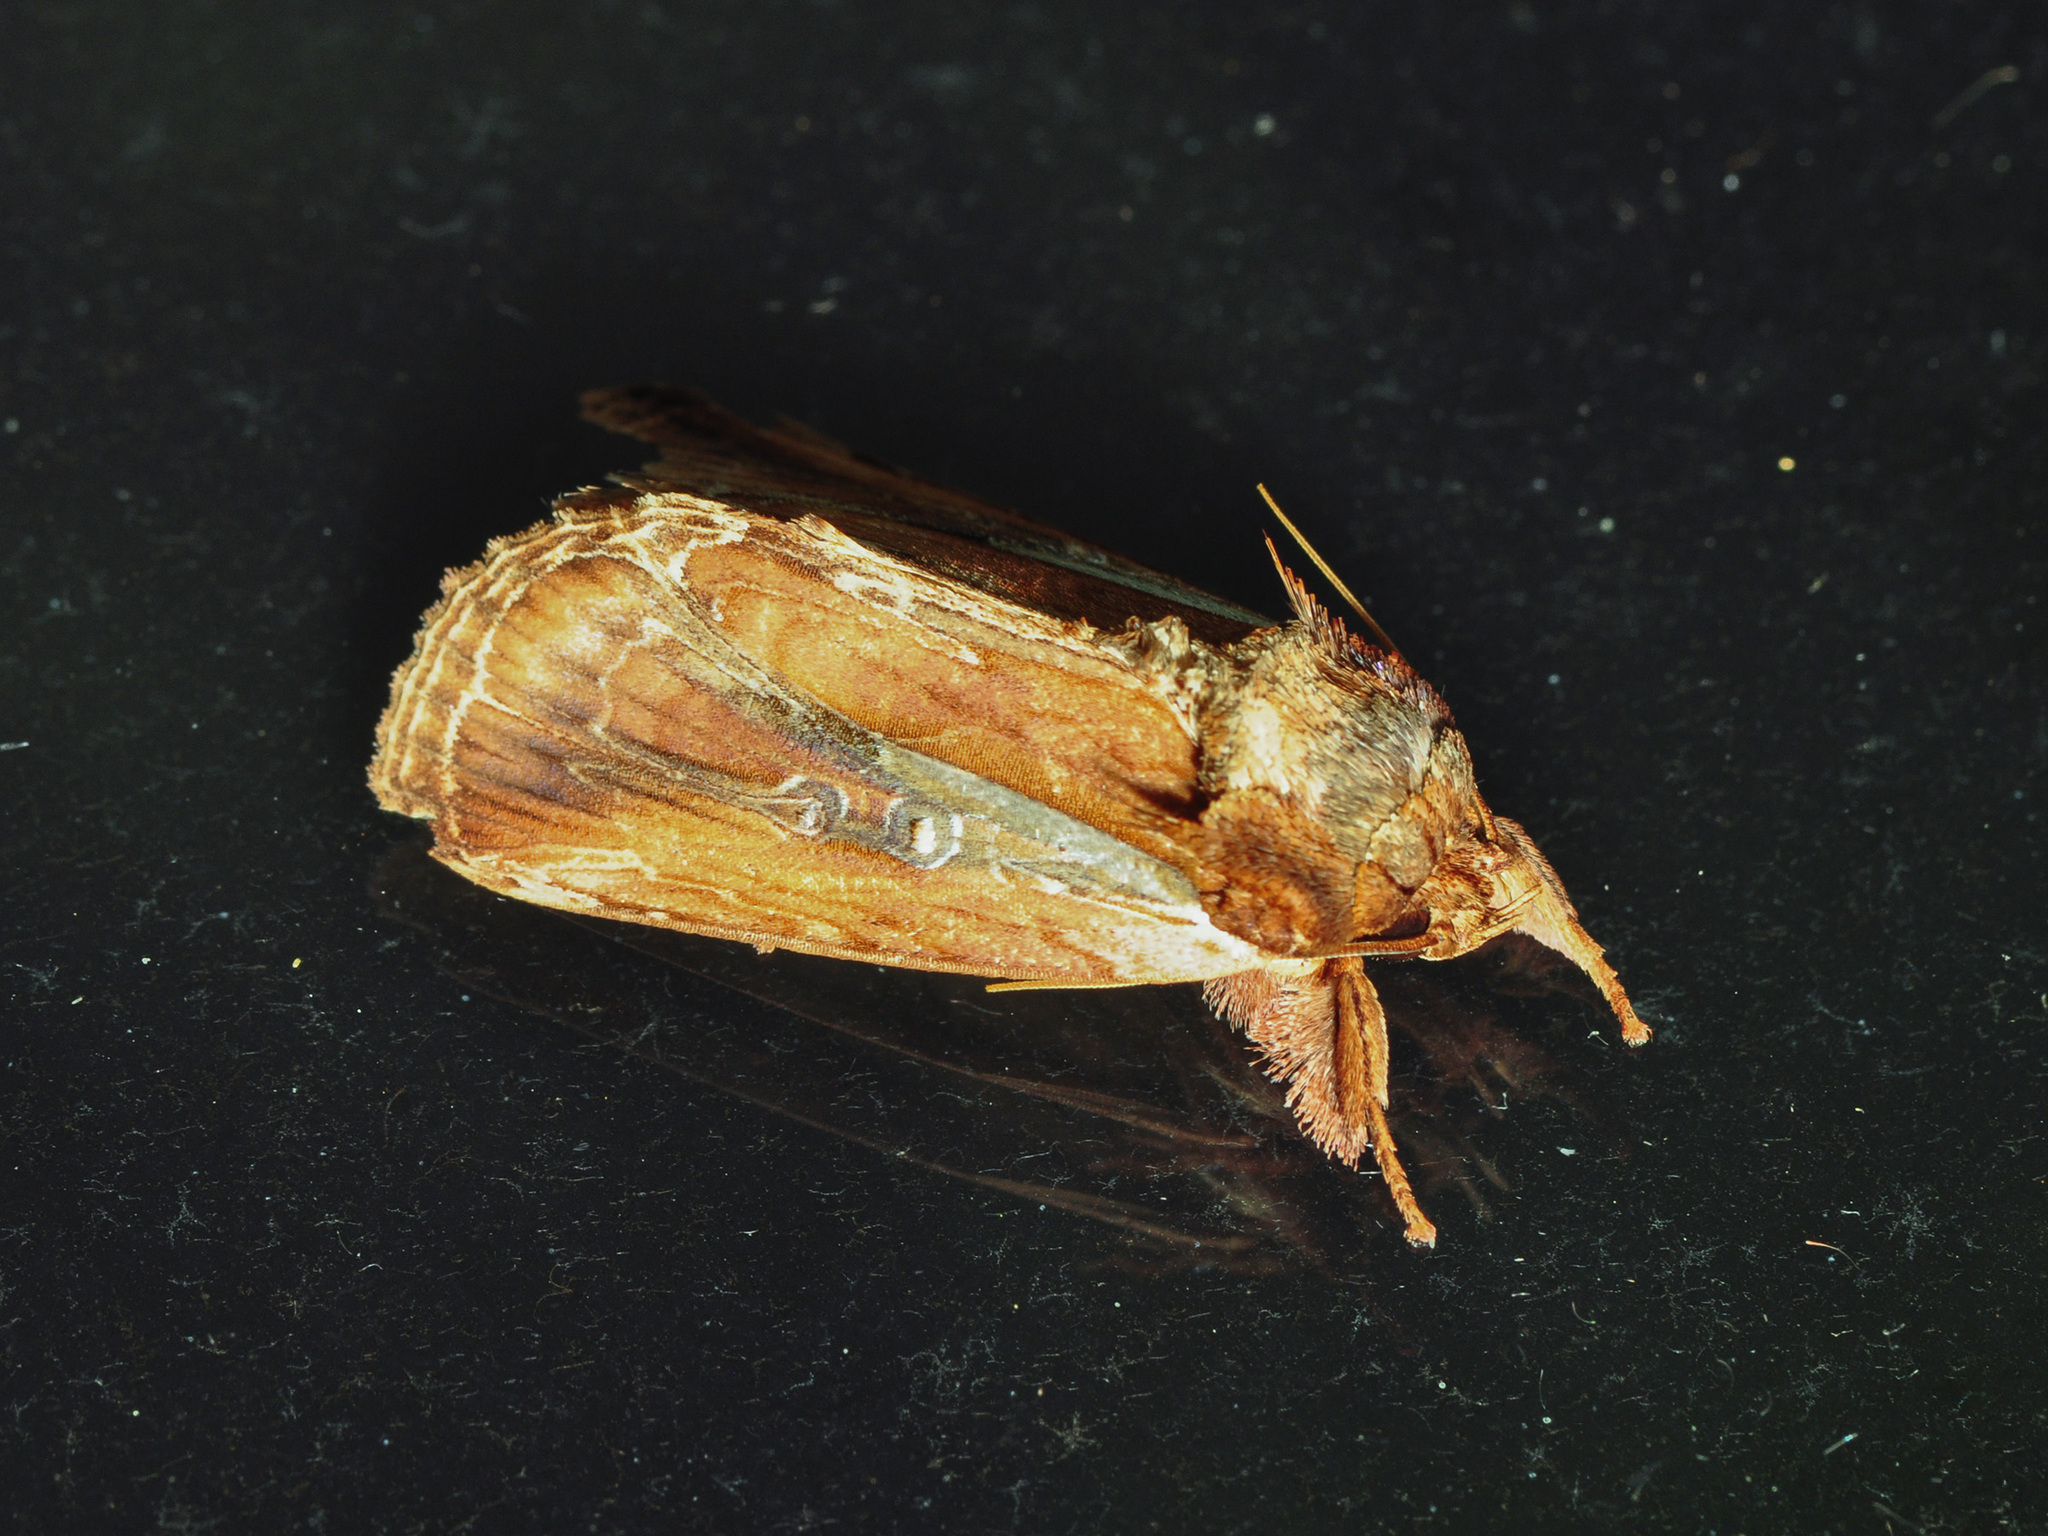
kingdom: Animalia
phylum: Arthropoda
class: Insecta
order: Lepidoptera
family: Nolidae
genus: Triorbis
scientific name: Triorbis aureovitta
